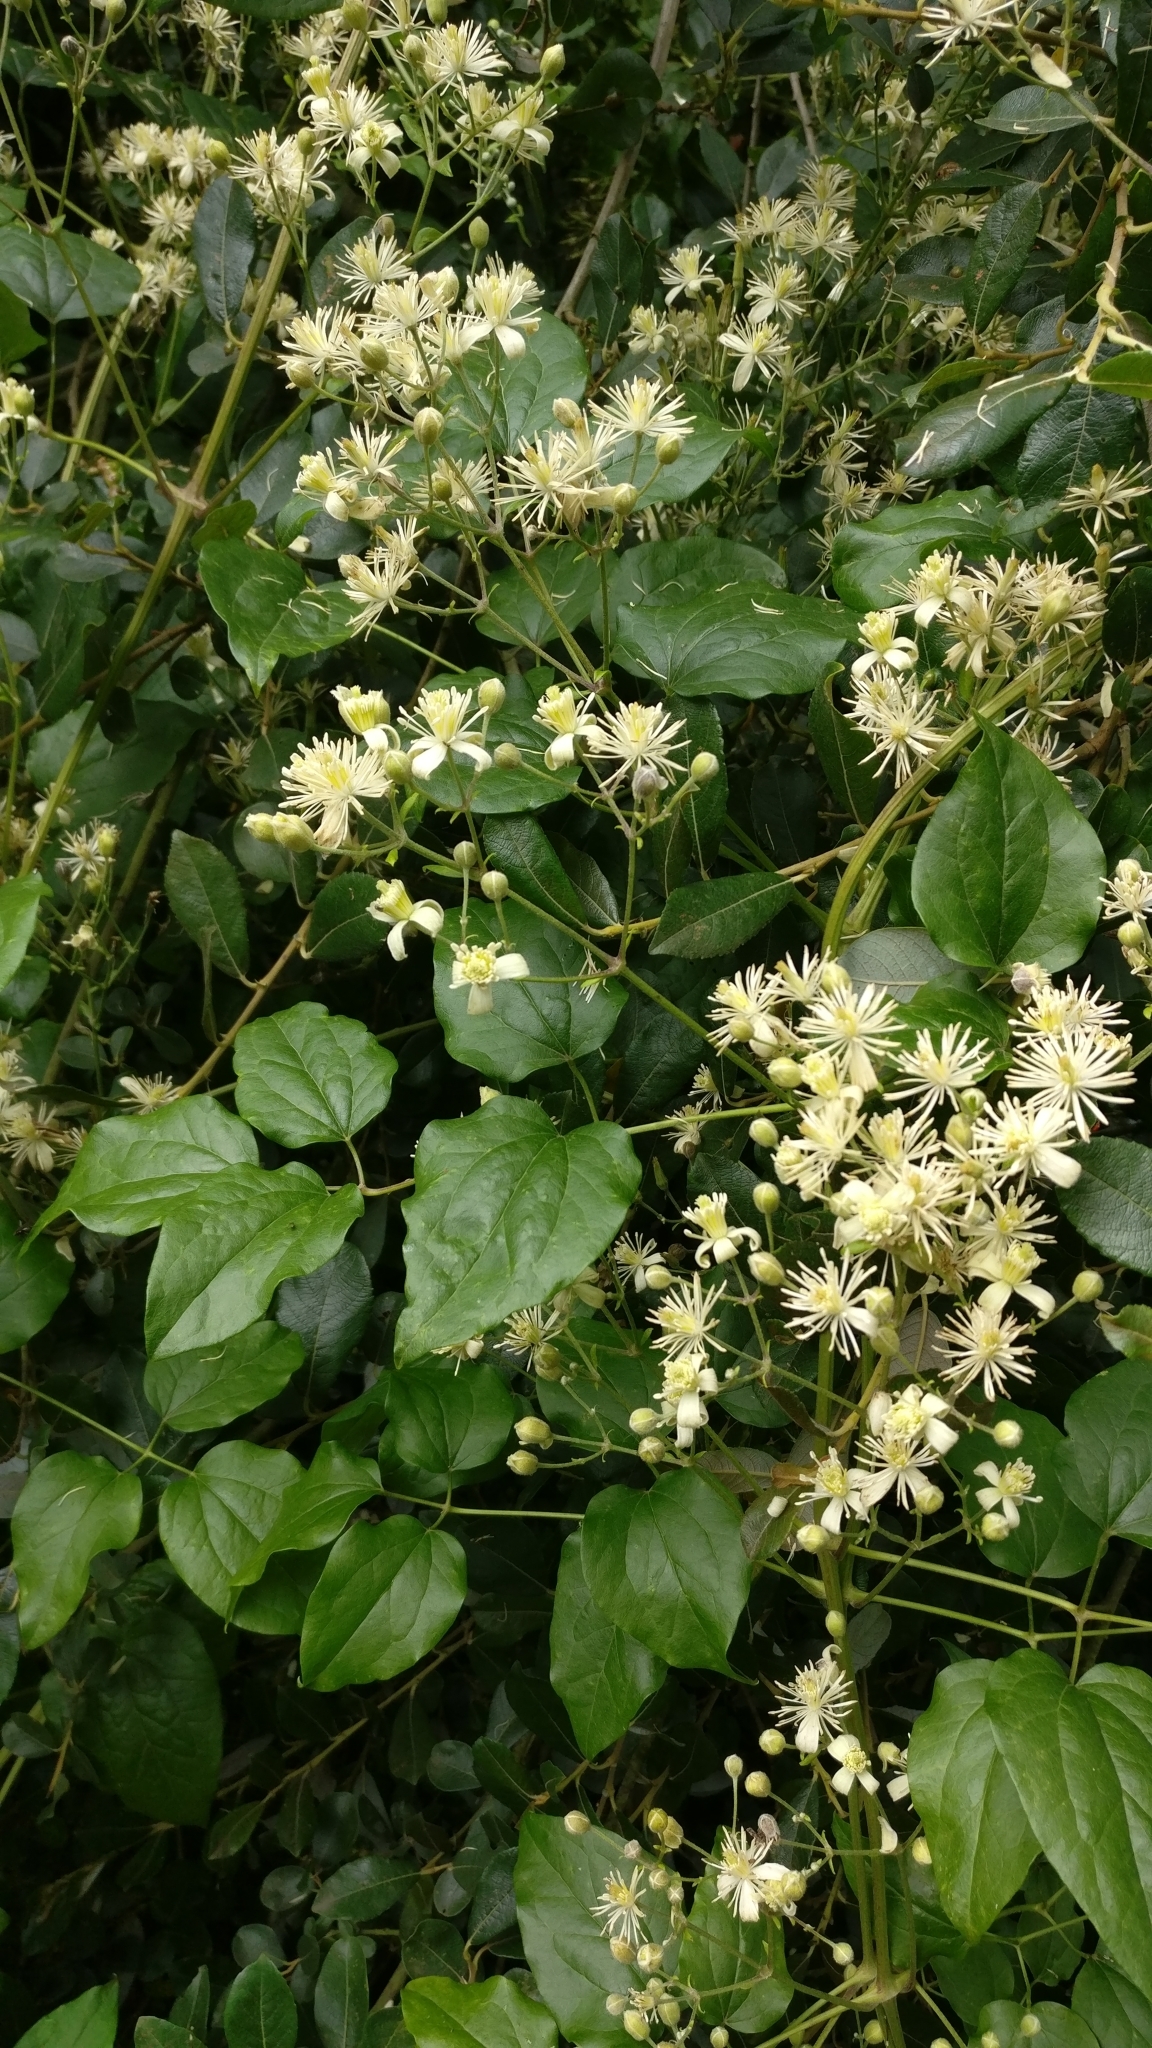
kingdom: Plantae
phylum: Tracheophyta
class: Magnoliopsida
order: Ranunculales
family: Ranunculaceae
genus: Clematis
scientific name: Clematis vitalba
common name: Evergreen clematis
